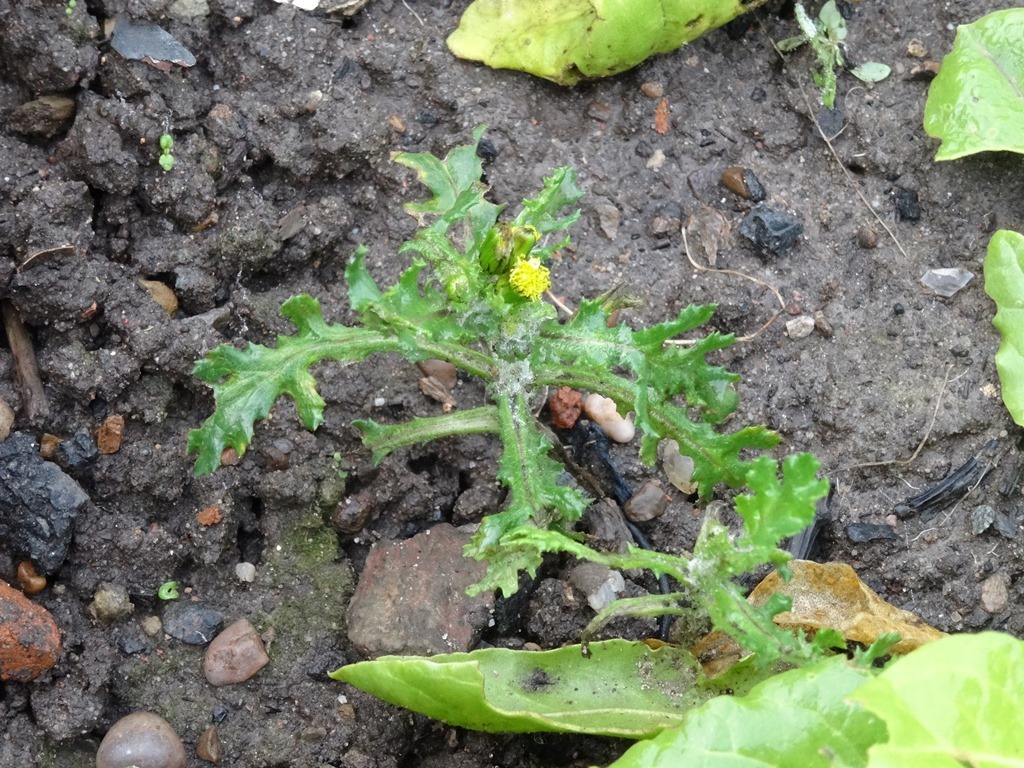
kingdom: Plantae
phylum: Tracheophyta
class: Magnoliopsida
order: Asterales
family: Asteraceae
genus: Senecio
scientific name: Senecio vulgaris
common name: Old-man-in-the-spring
